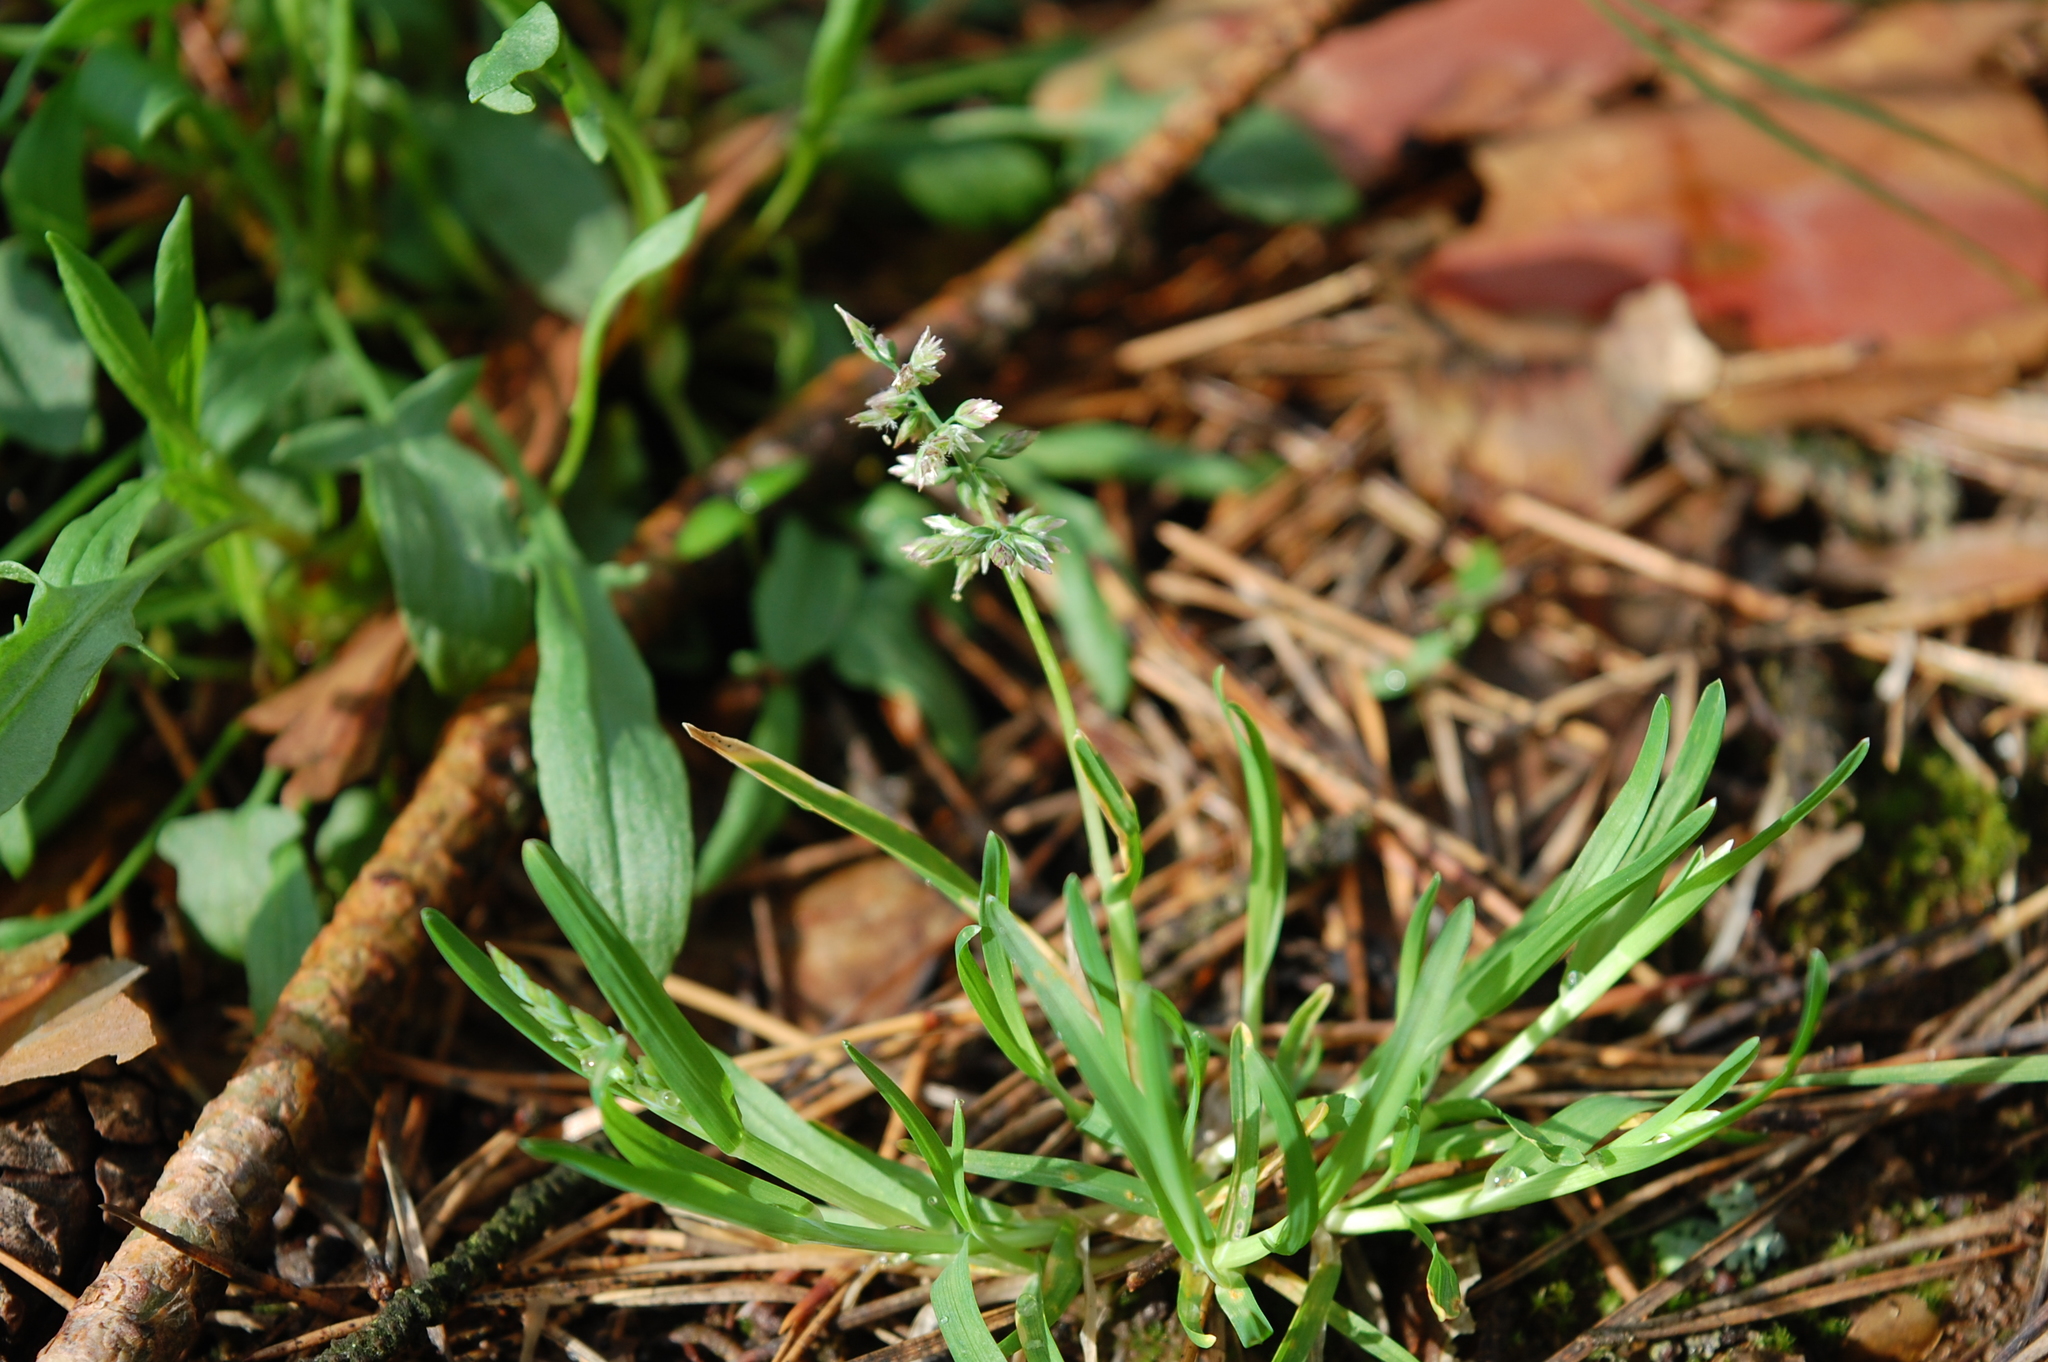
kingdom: Plantae
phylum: Tracheophyta
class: Liliopsida
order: Poales
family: Poaceae
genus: Poa
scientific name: Poa annua
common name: Annual bluegrass
